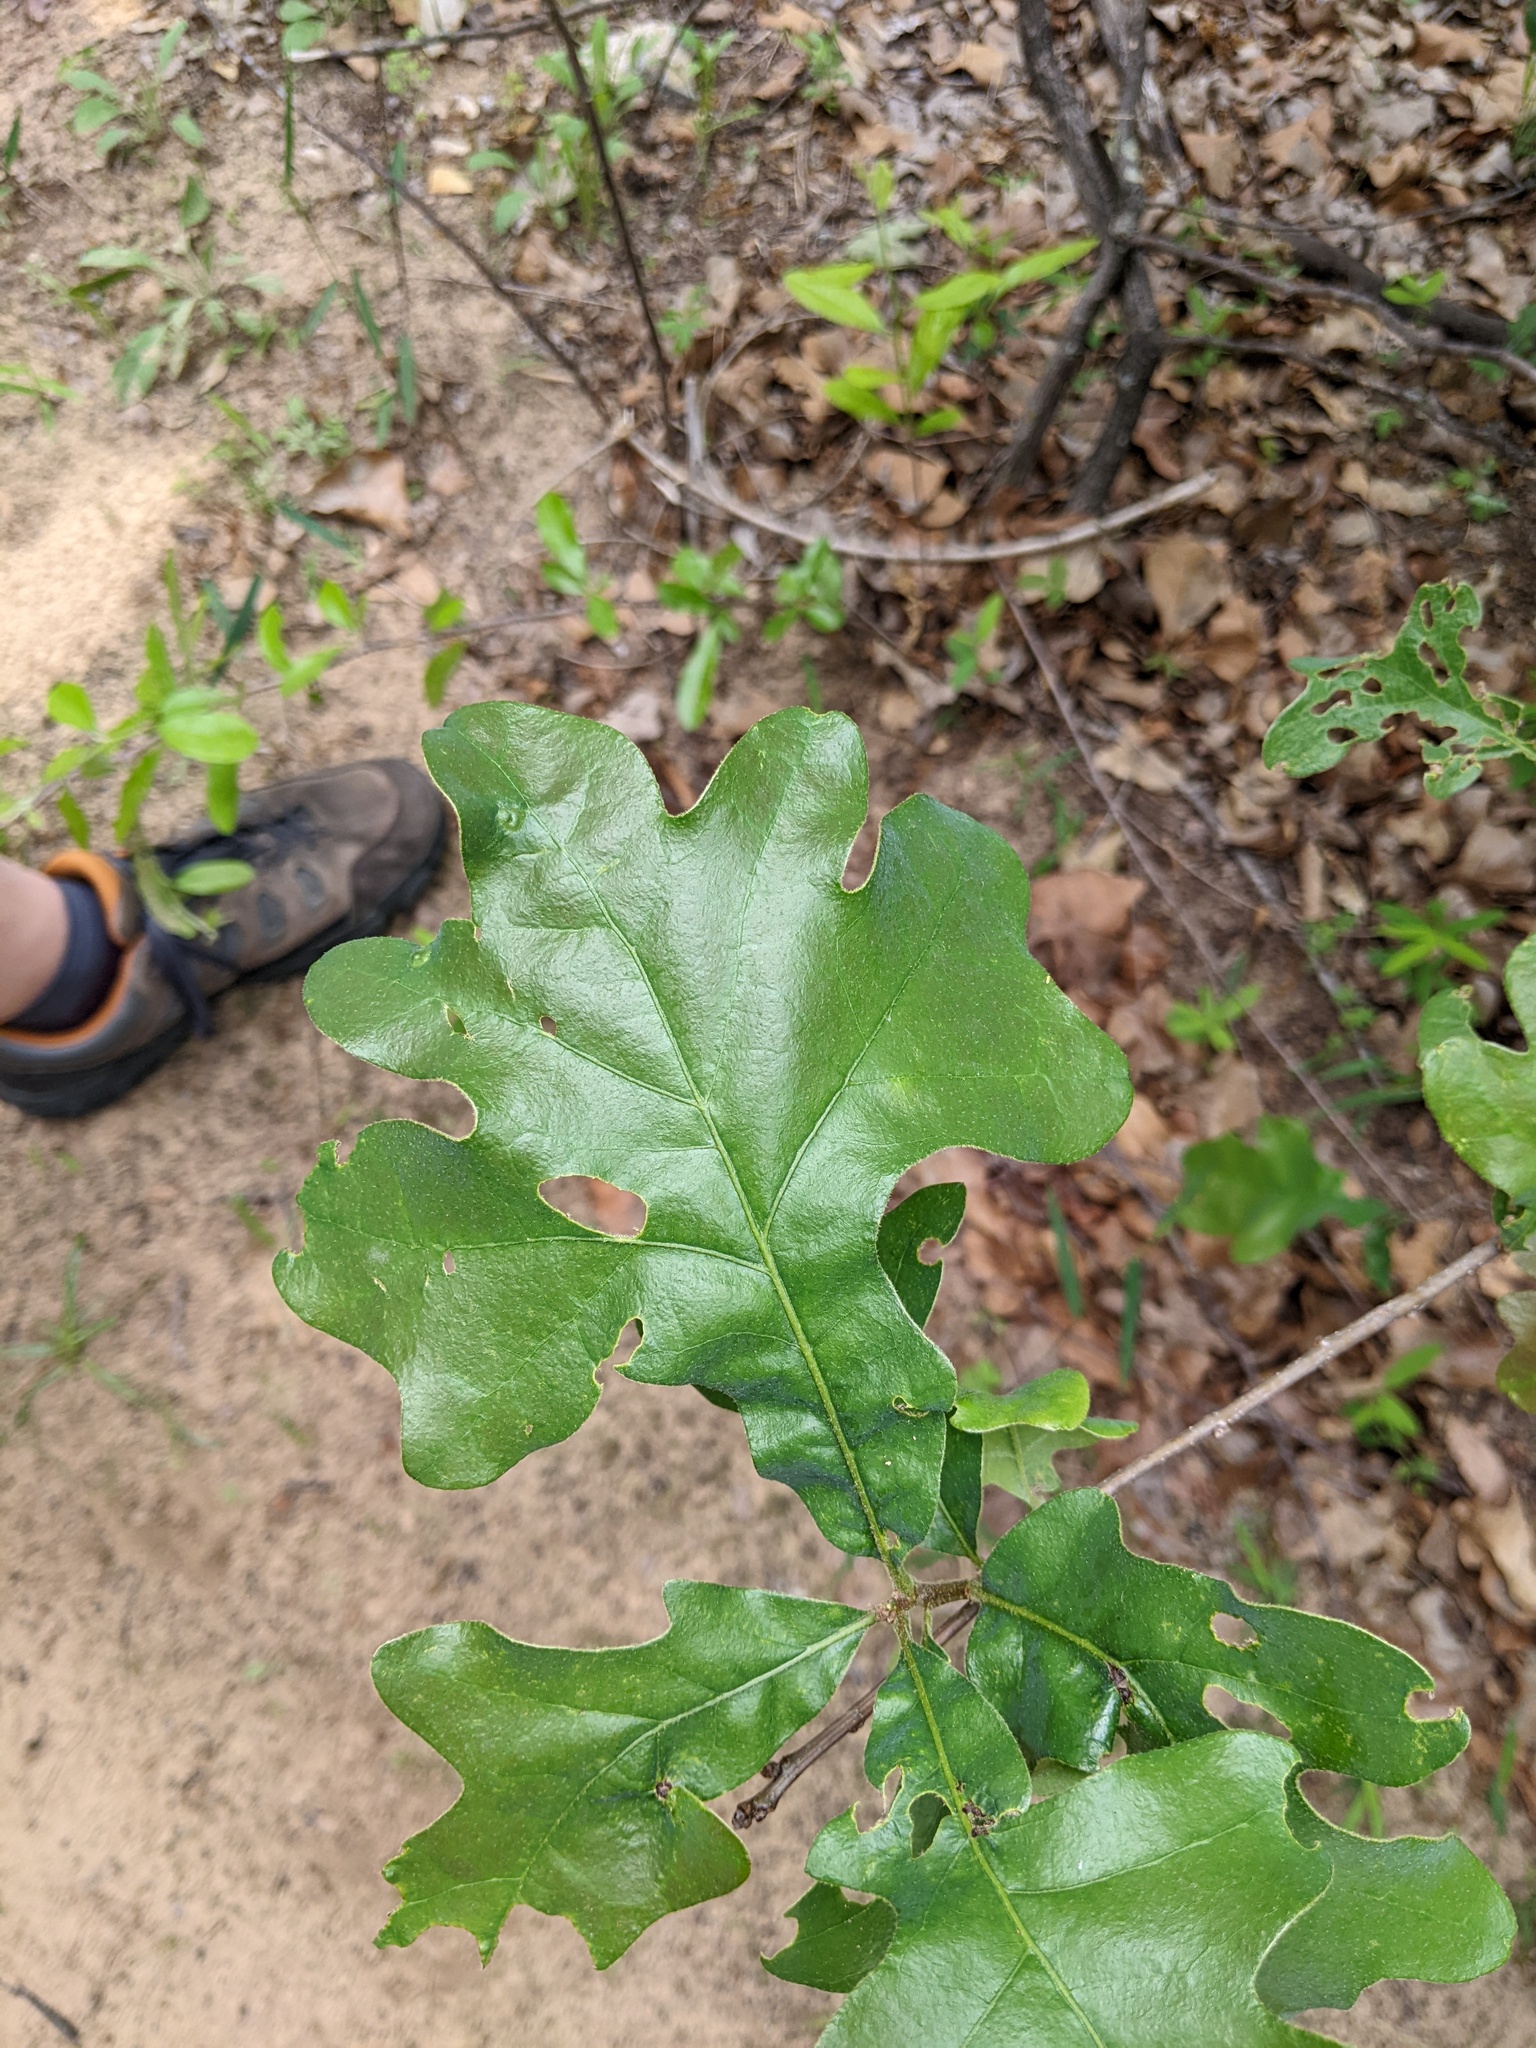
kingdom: Plantae
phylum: Tracheophyta
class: Magnoliopsida
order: Fagales
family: Fagaceae
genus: Quercus
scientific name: Quercus margaretiae
